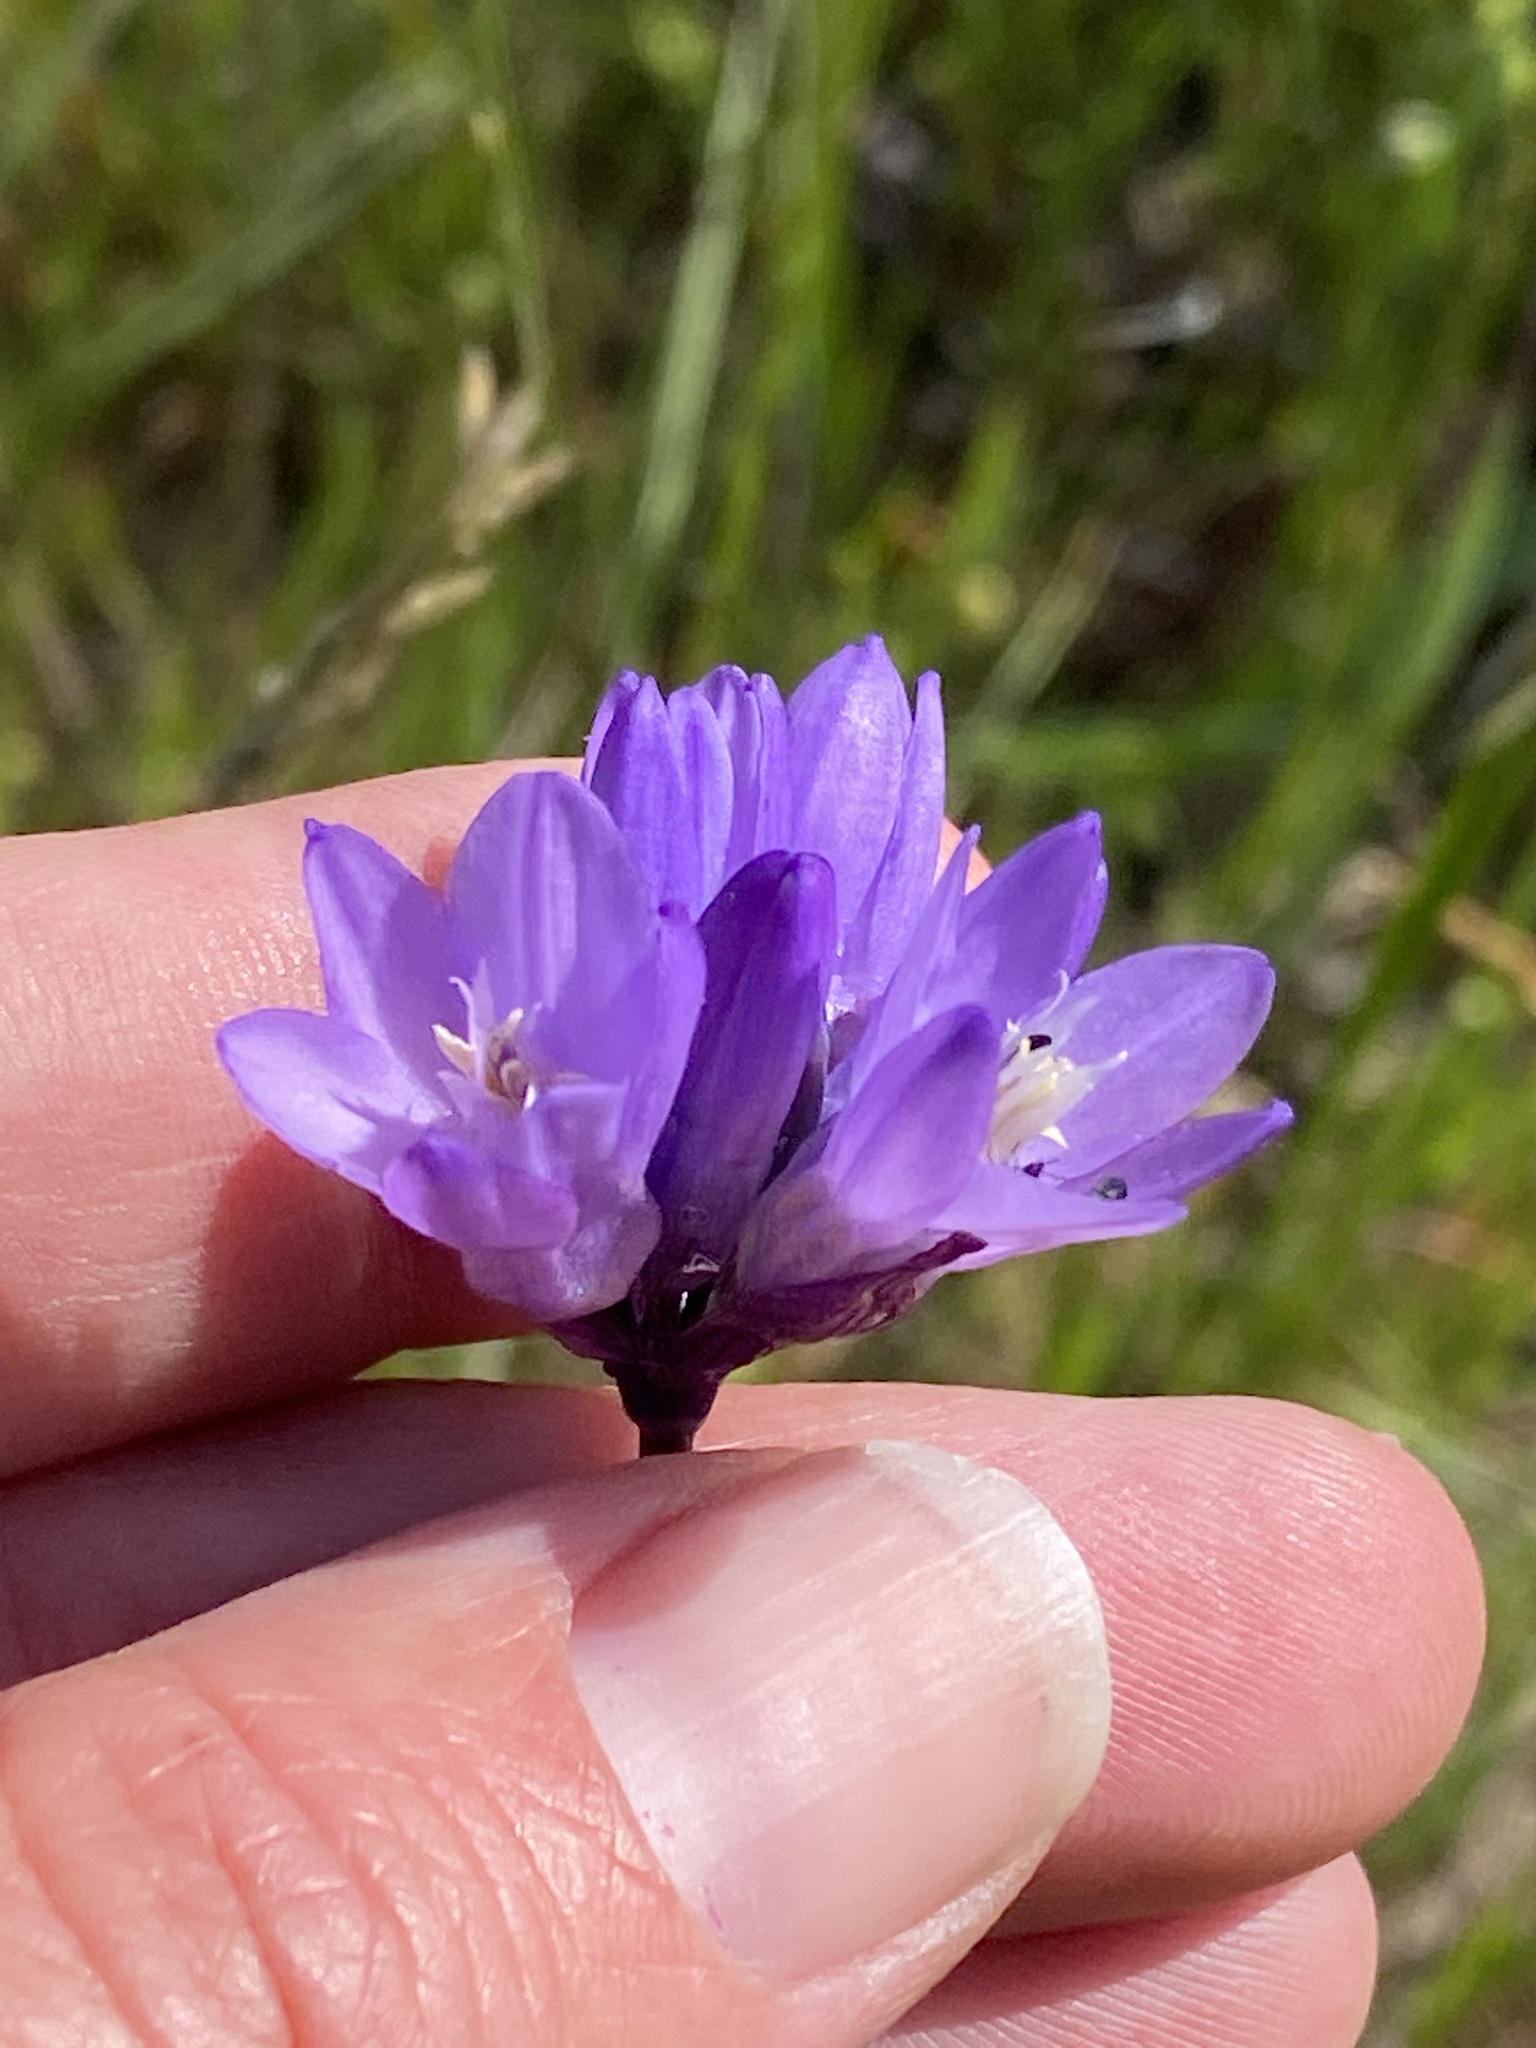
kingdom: Plantae
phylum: Tracheophyta
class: Liliopsida
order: Asparagales
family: Asparagaceae
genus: Dipterostemon
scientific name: Dipterostemon capitatus
